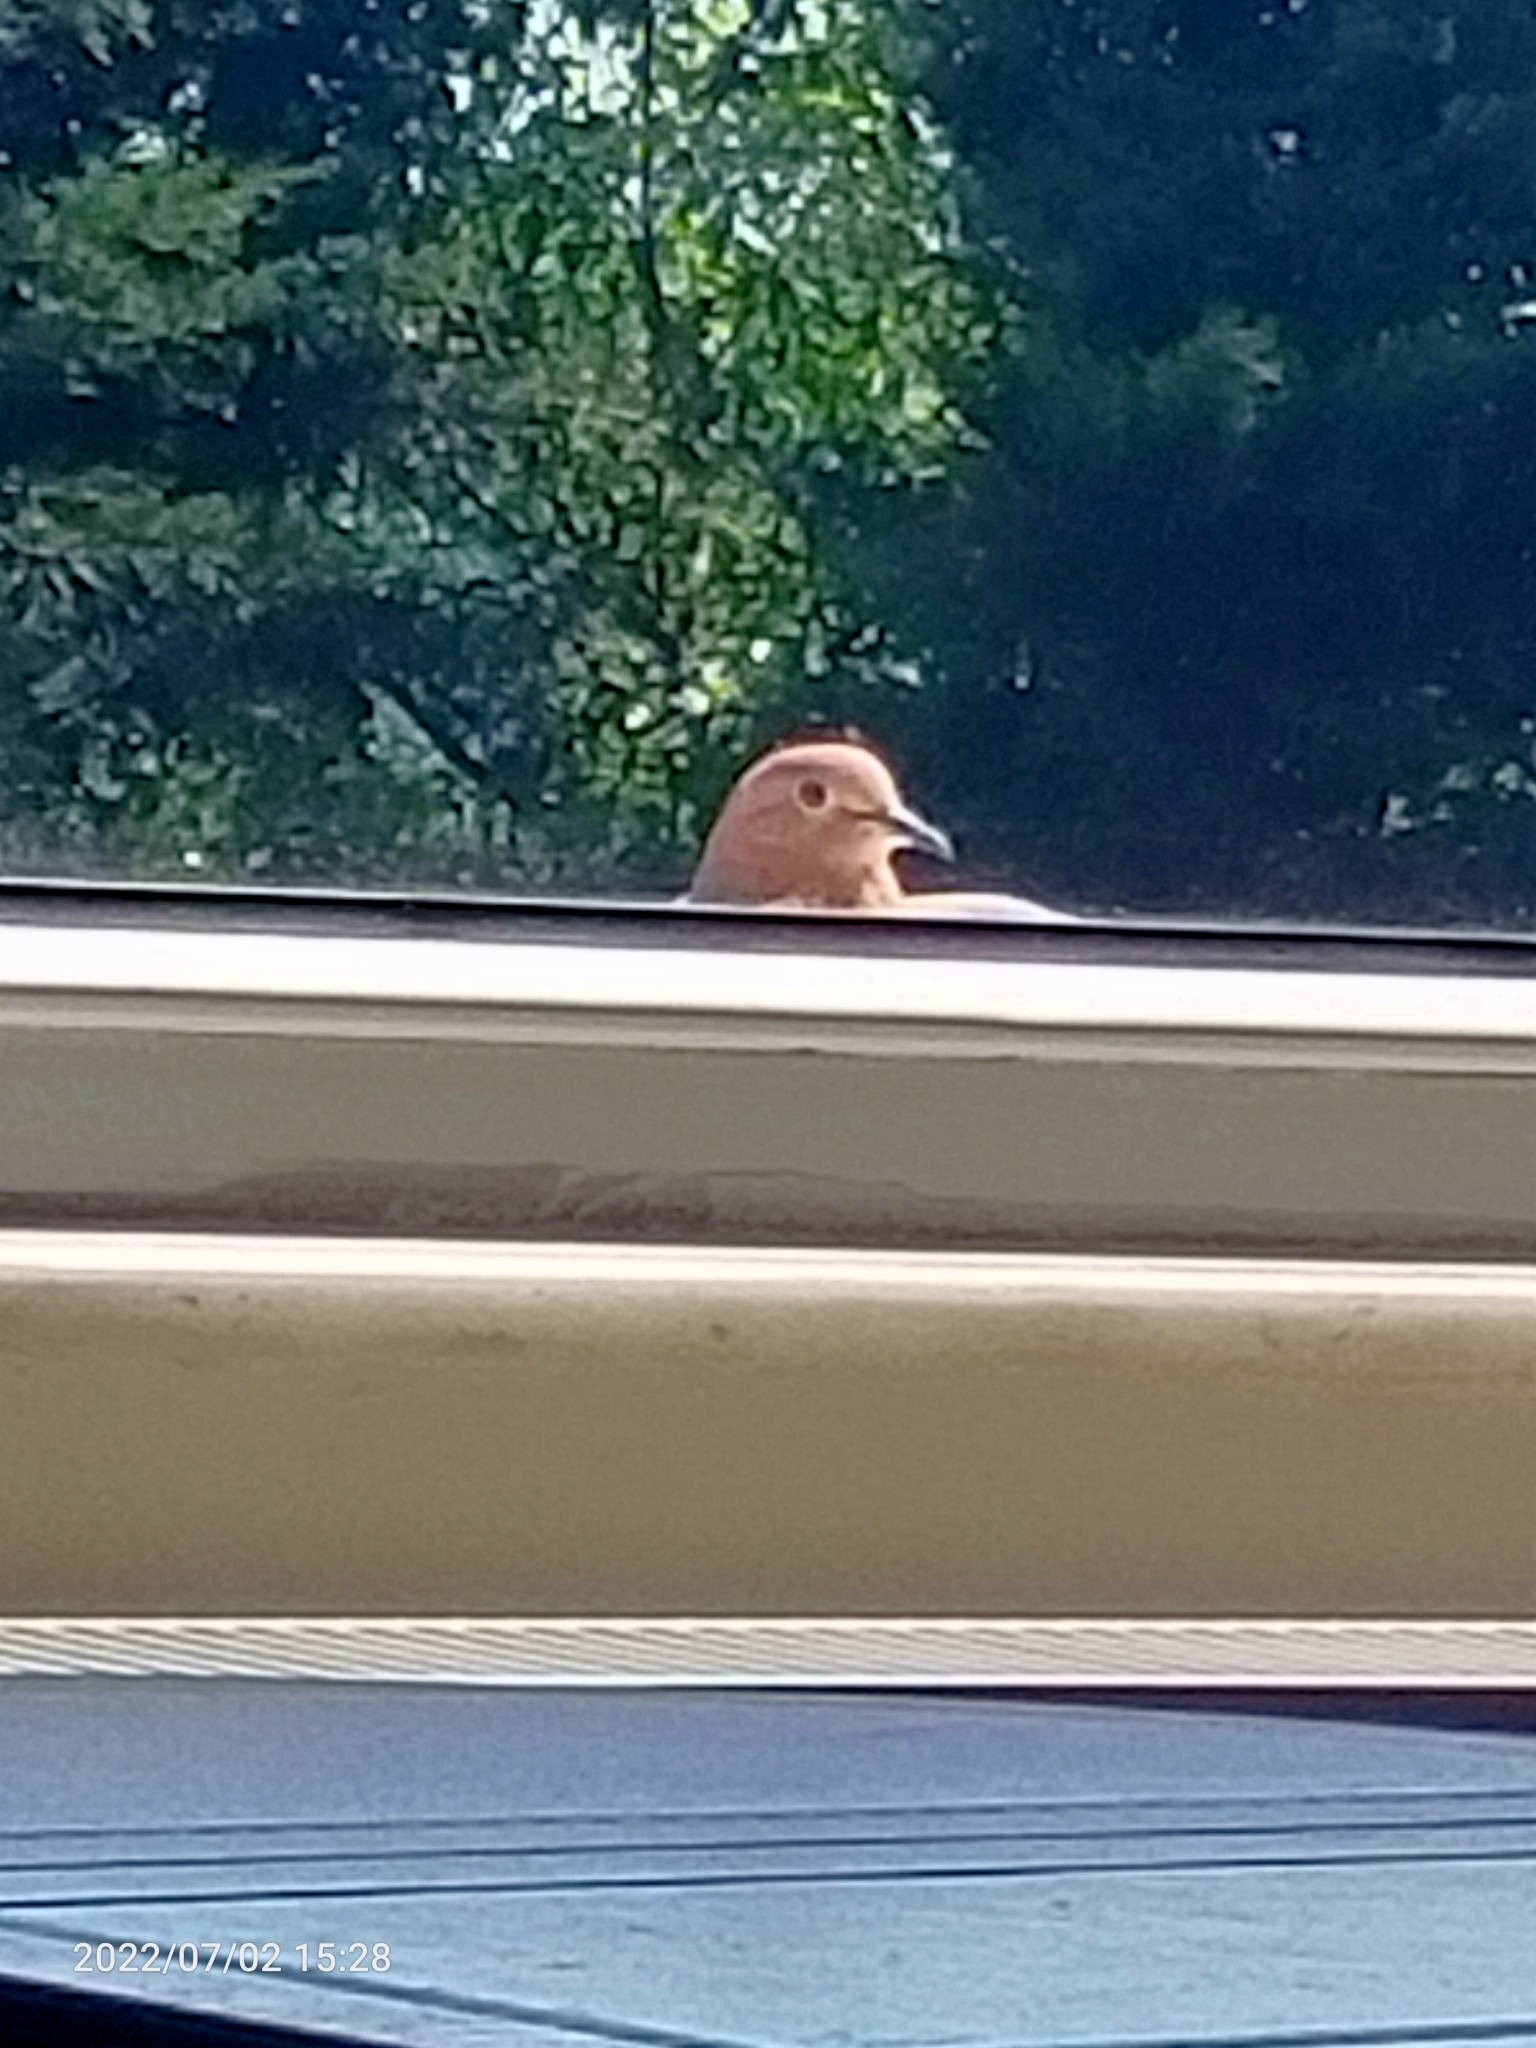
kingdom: Animalia
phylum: Chordata
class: Aves
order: Columbiformes
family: Columbidae
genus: Spilopelia
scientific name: Spilopelia senegalensis
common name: Laughing dove
